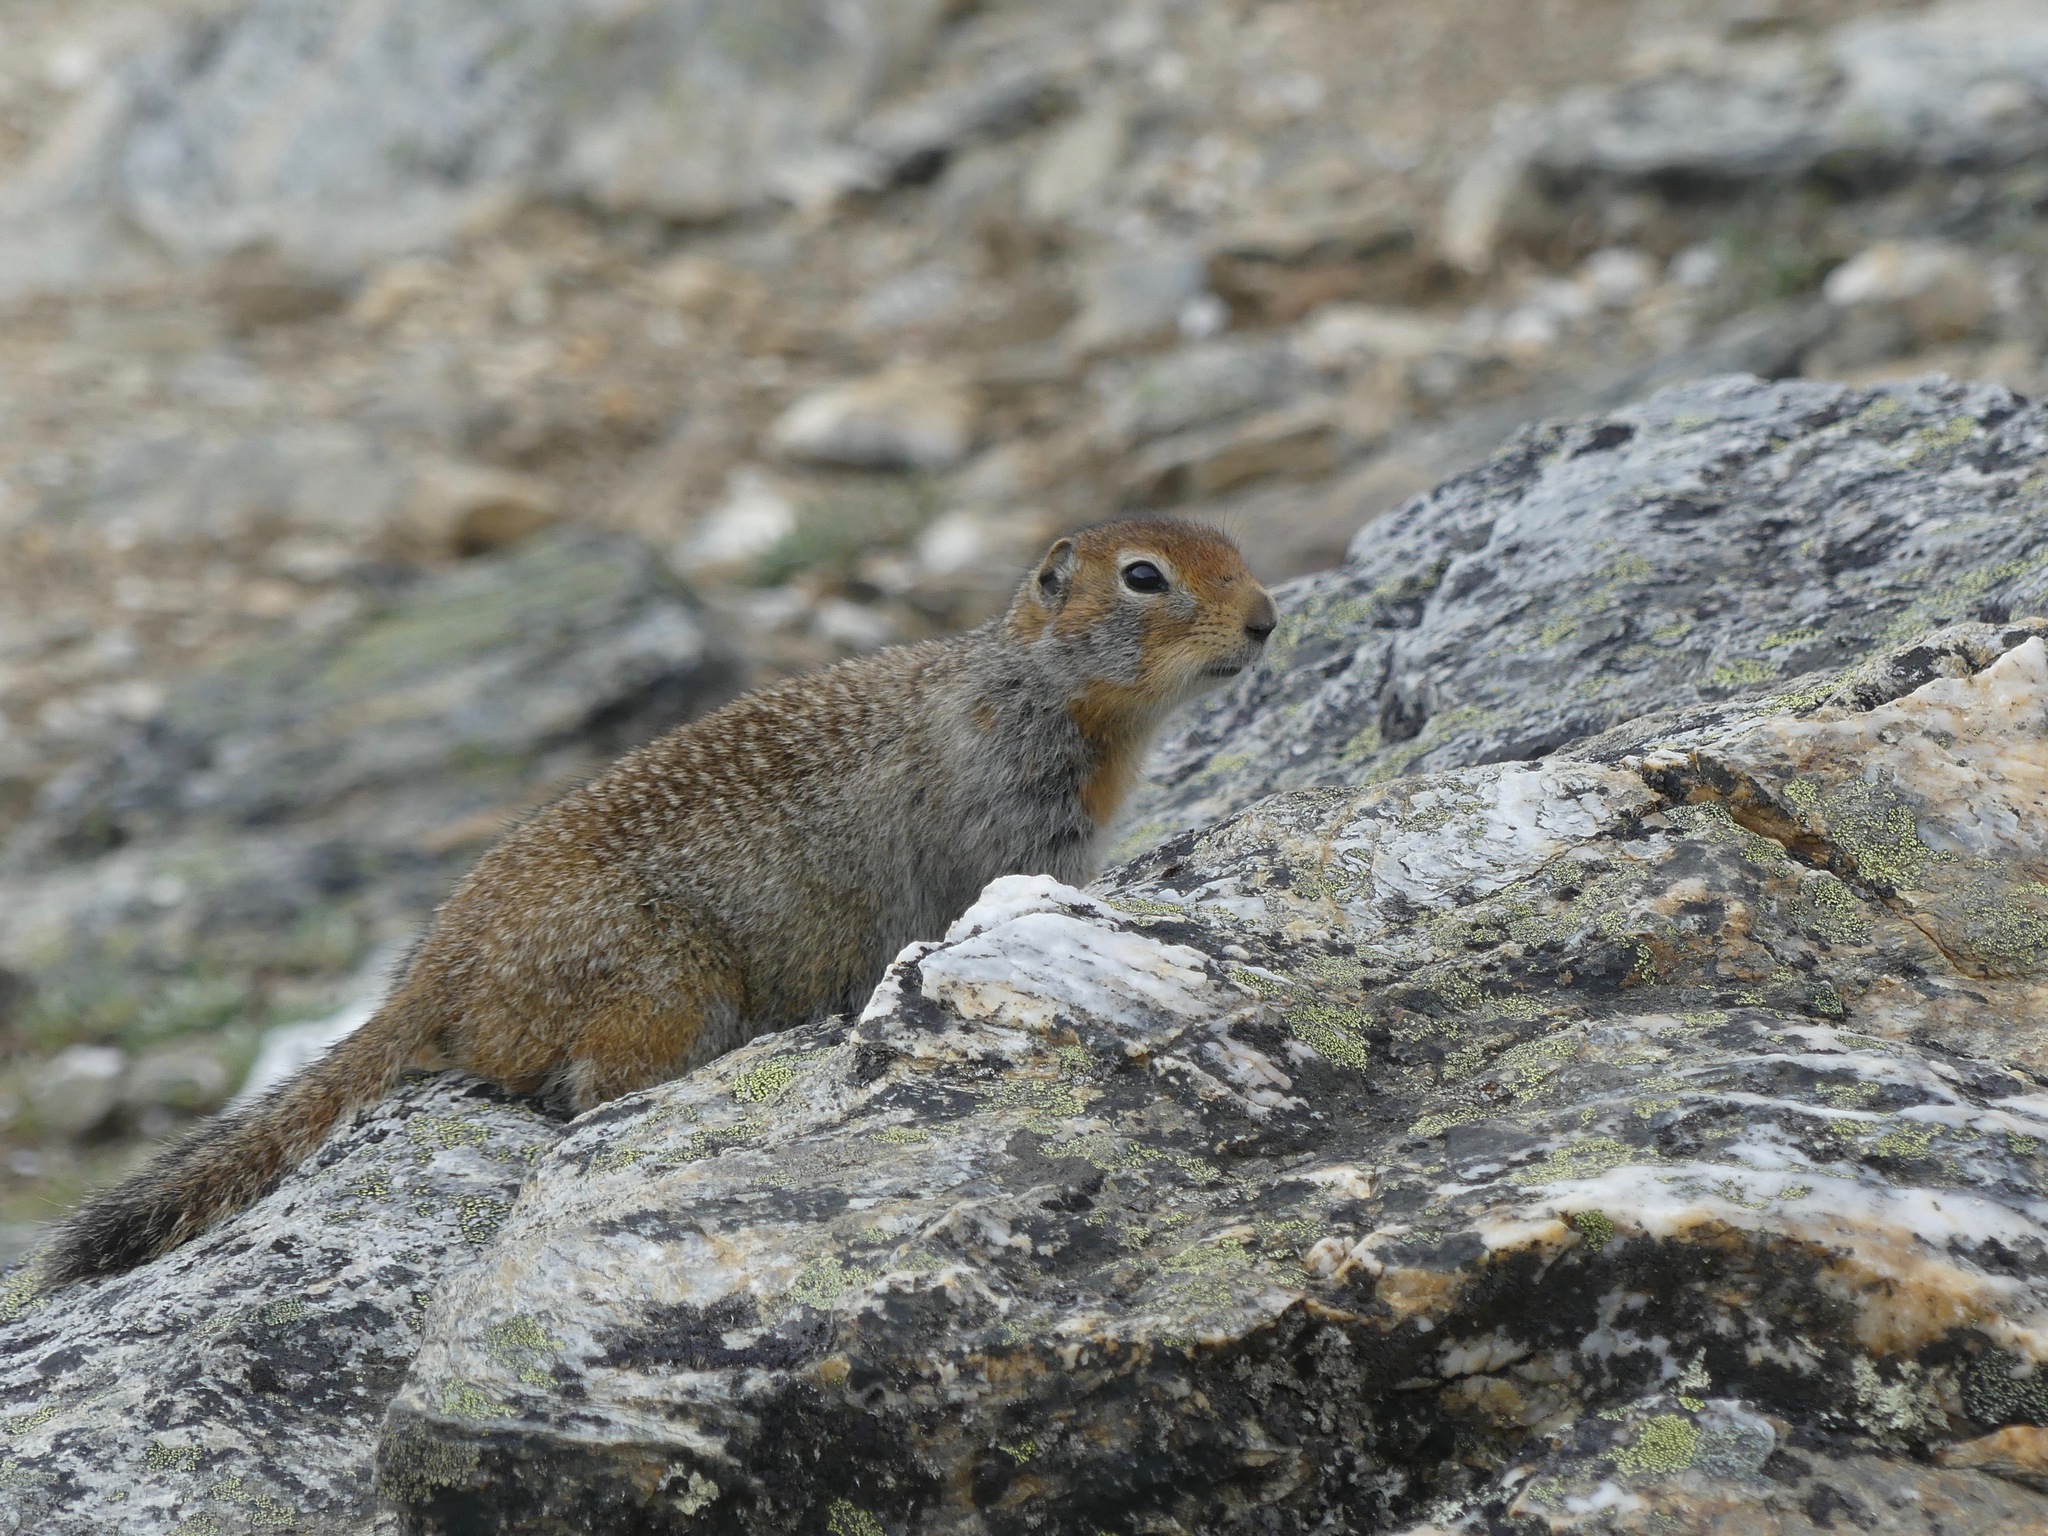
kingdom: Animalia
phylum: Chordata
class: Mammalia
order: Rodentia
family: Sciuridae
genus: Urocitellus
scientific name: Urocitellus parryii
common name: Arctic ground squirrel
